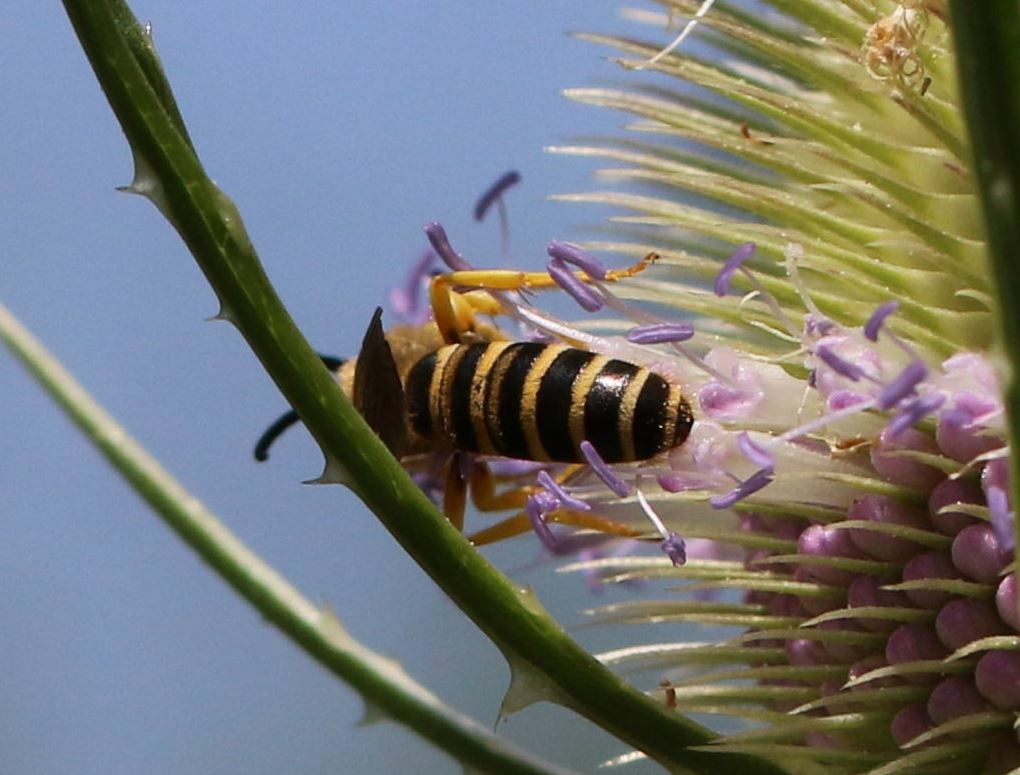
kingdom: Animalia
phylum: Arthropoda
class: Insecta
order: Hymenoptera
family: Halictidae
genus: Halictus
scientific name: Halictus scabiosae
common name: Great banded furrow bee
